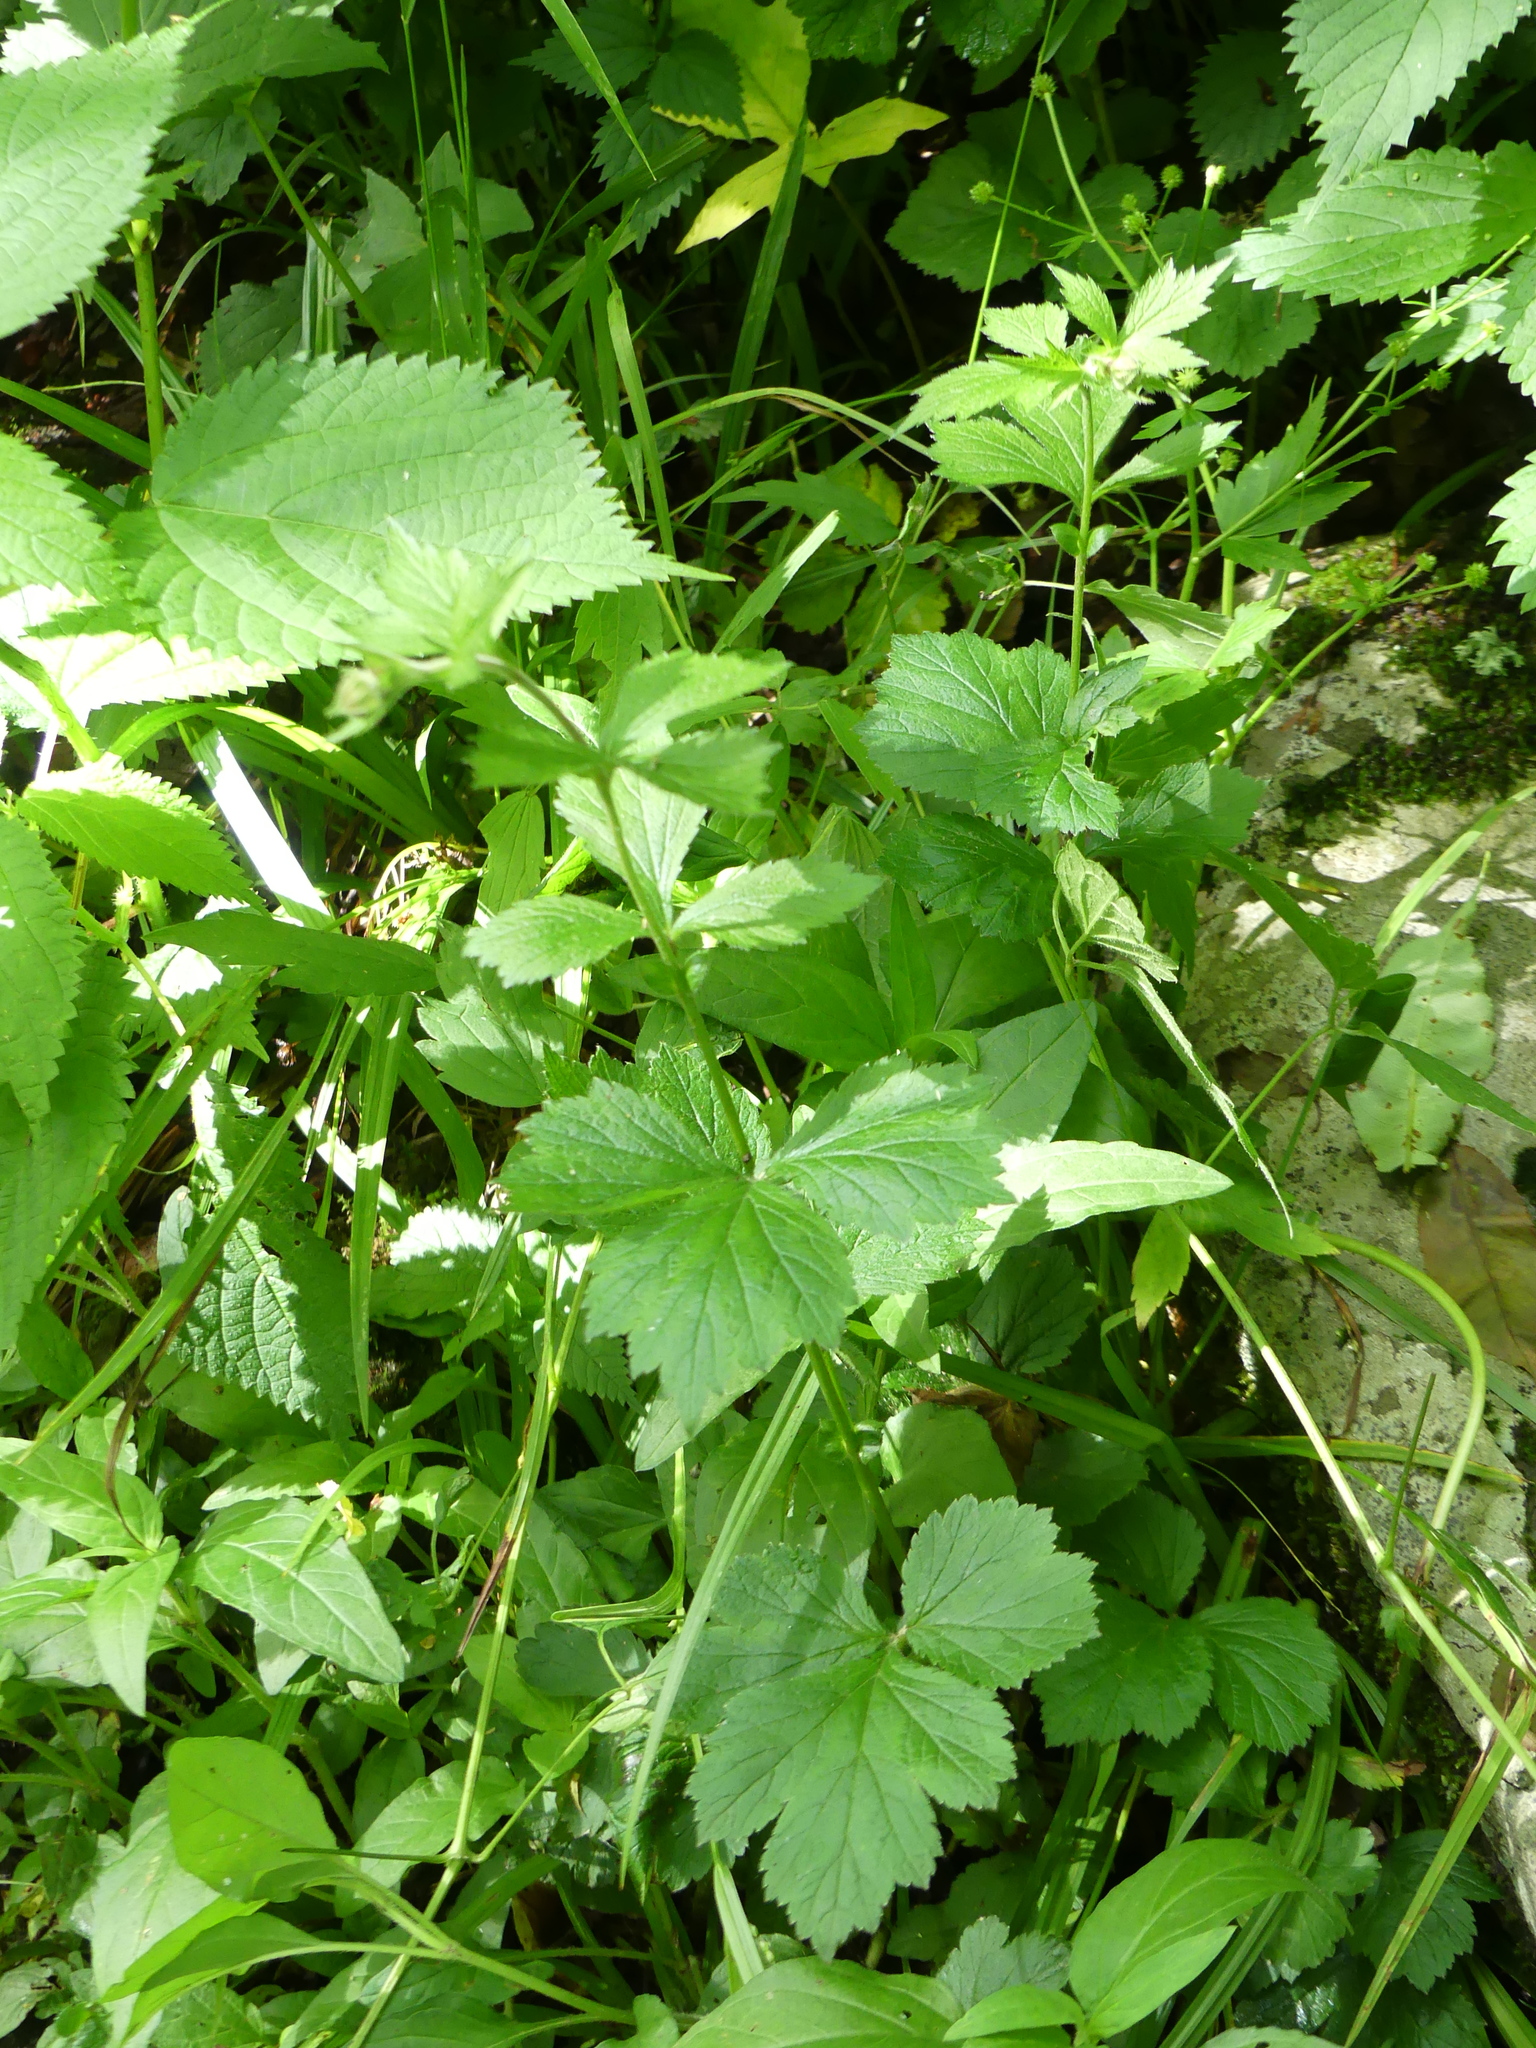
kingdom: Plantae
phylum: Tracheophyta
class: Magnoliopsida
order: Rosales
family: Rosaceae
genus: Geum
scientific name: Geum geniculatum
